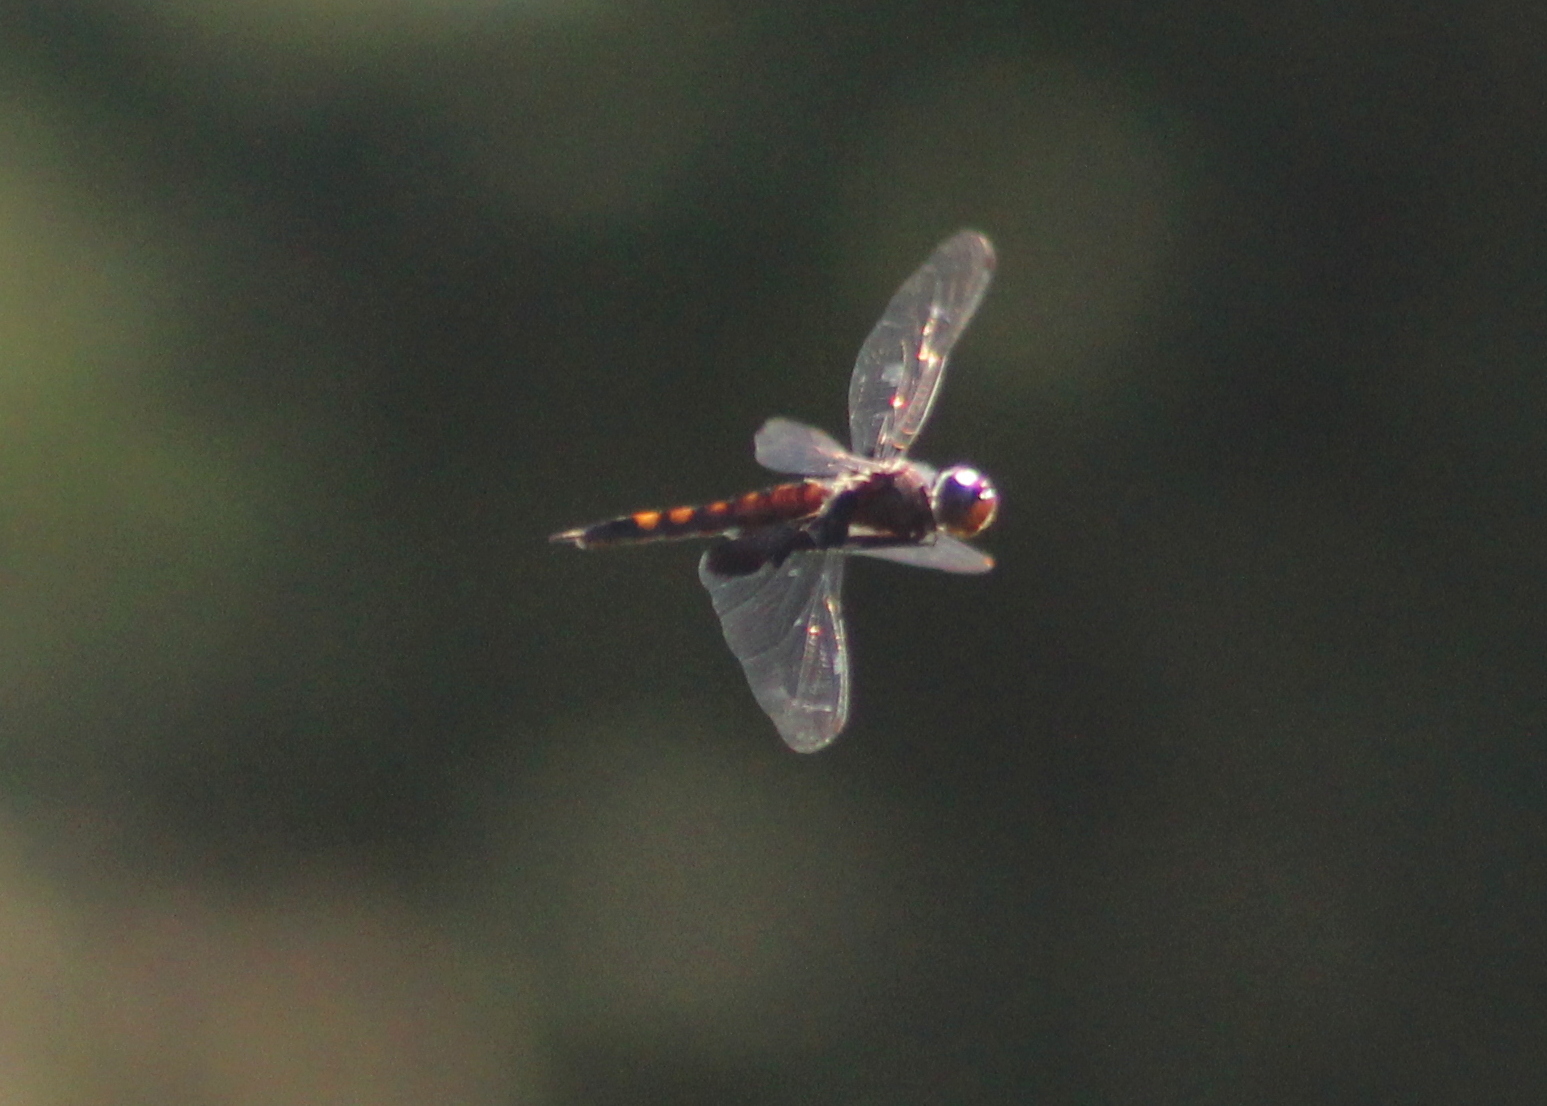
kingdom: Animalia
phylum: Arthropoda
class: Insecta
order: Odonata
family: Libellulidae
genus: Tramea
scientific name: Tramea lacerata
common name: Black saddlebags
